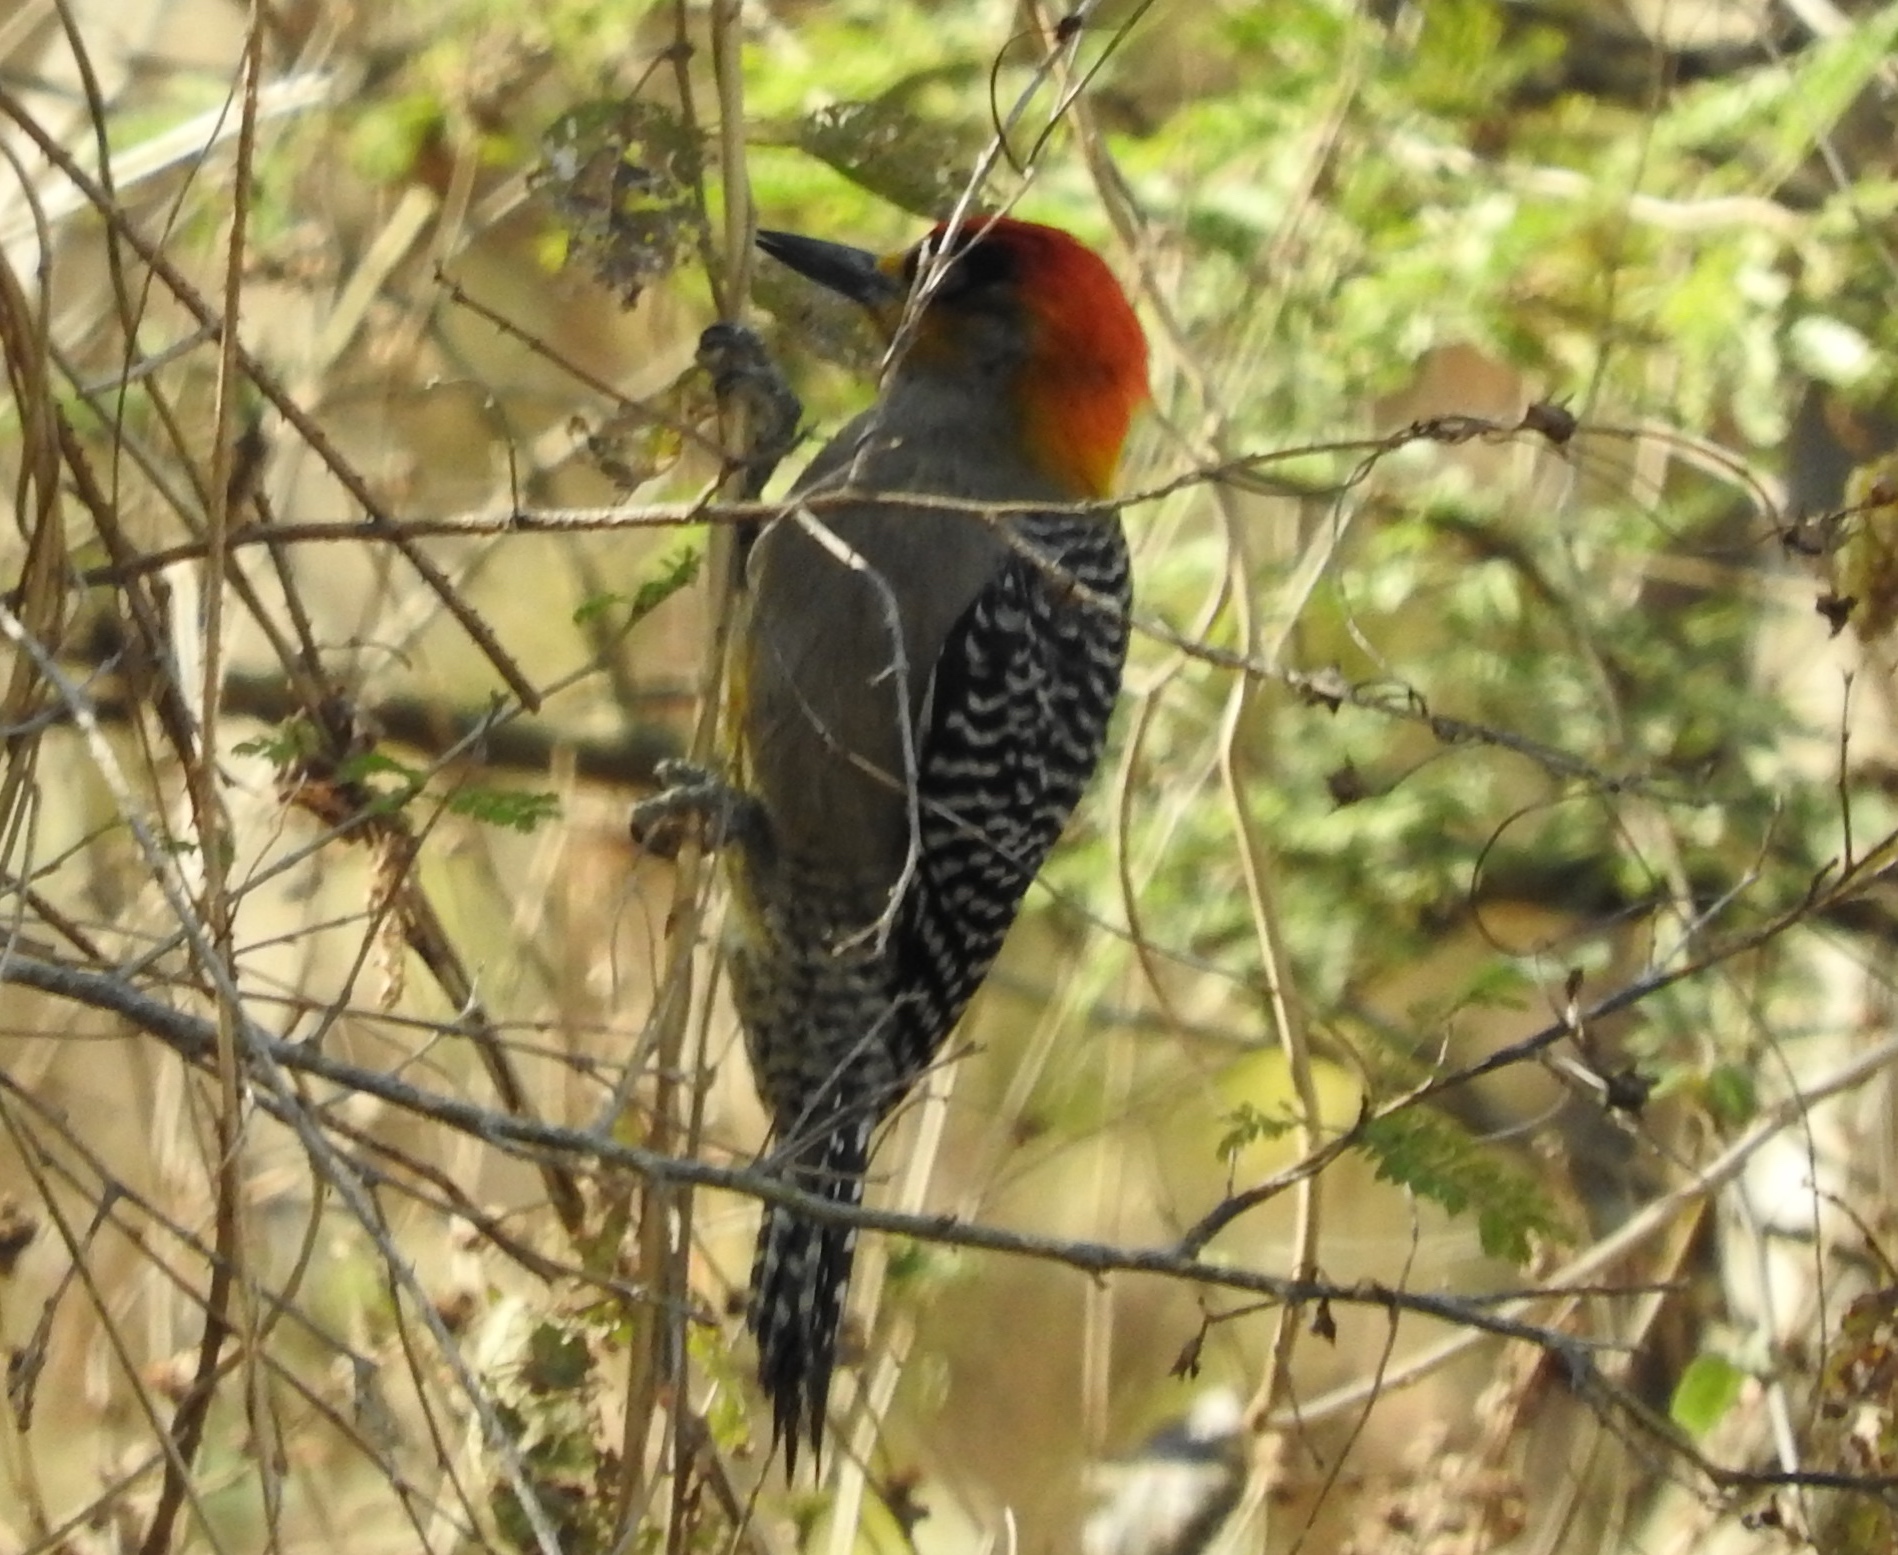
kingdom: Animalia
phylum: Chordata
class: Aves
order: Piciformes
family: Picidae
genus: Melanerpes
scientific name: Melanerpes chrysogenys
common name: Golden-cheeked woodpecker
